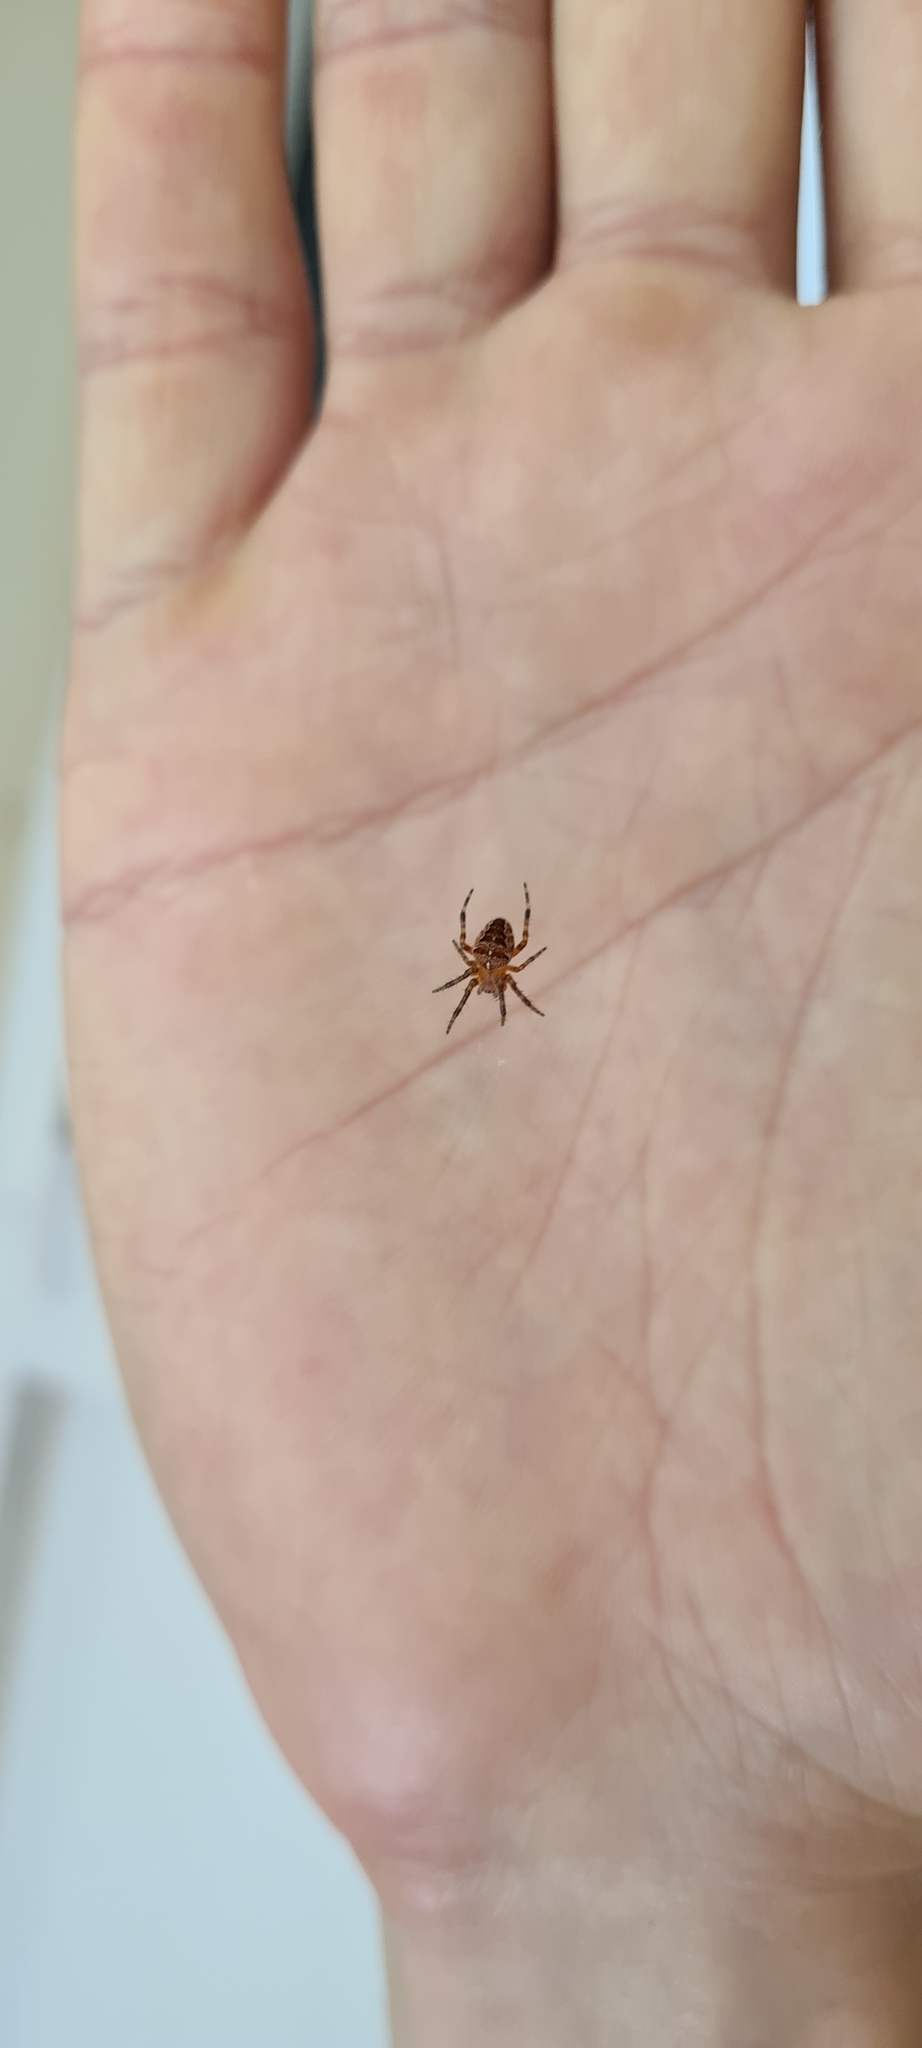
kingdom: Animalia
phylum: Arthropoda
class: Arachnida
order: Araneae
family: Araneidae
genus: Araneus
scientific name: Araneus diadematus
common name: Cross orbweaver
